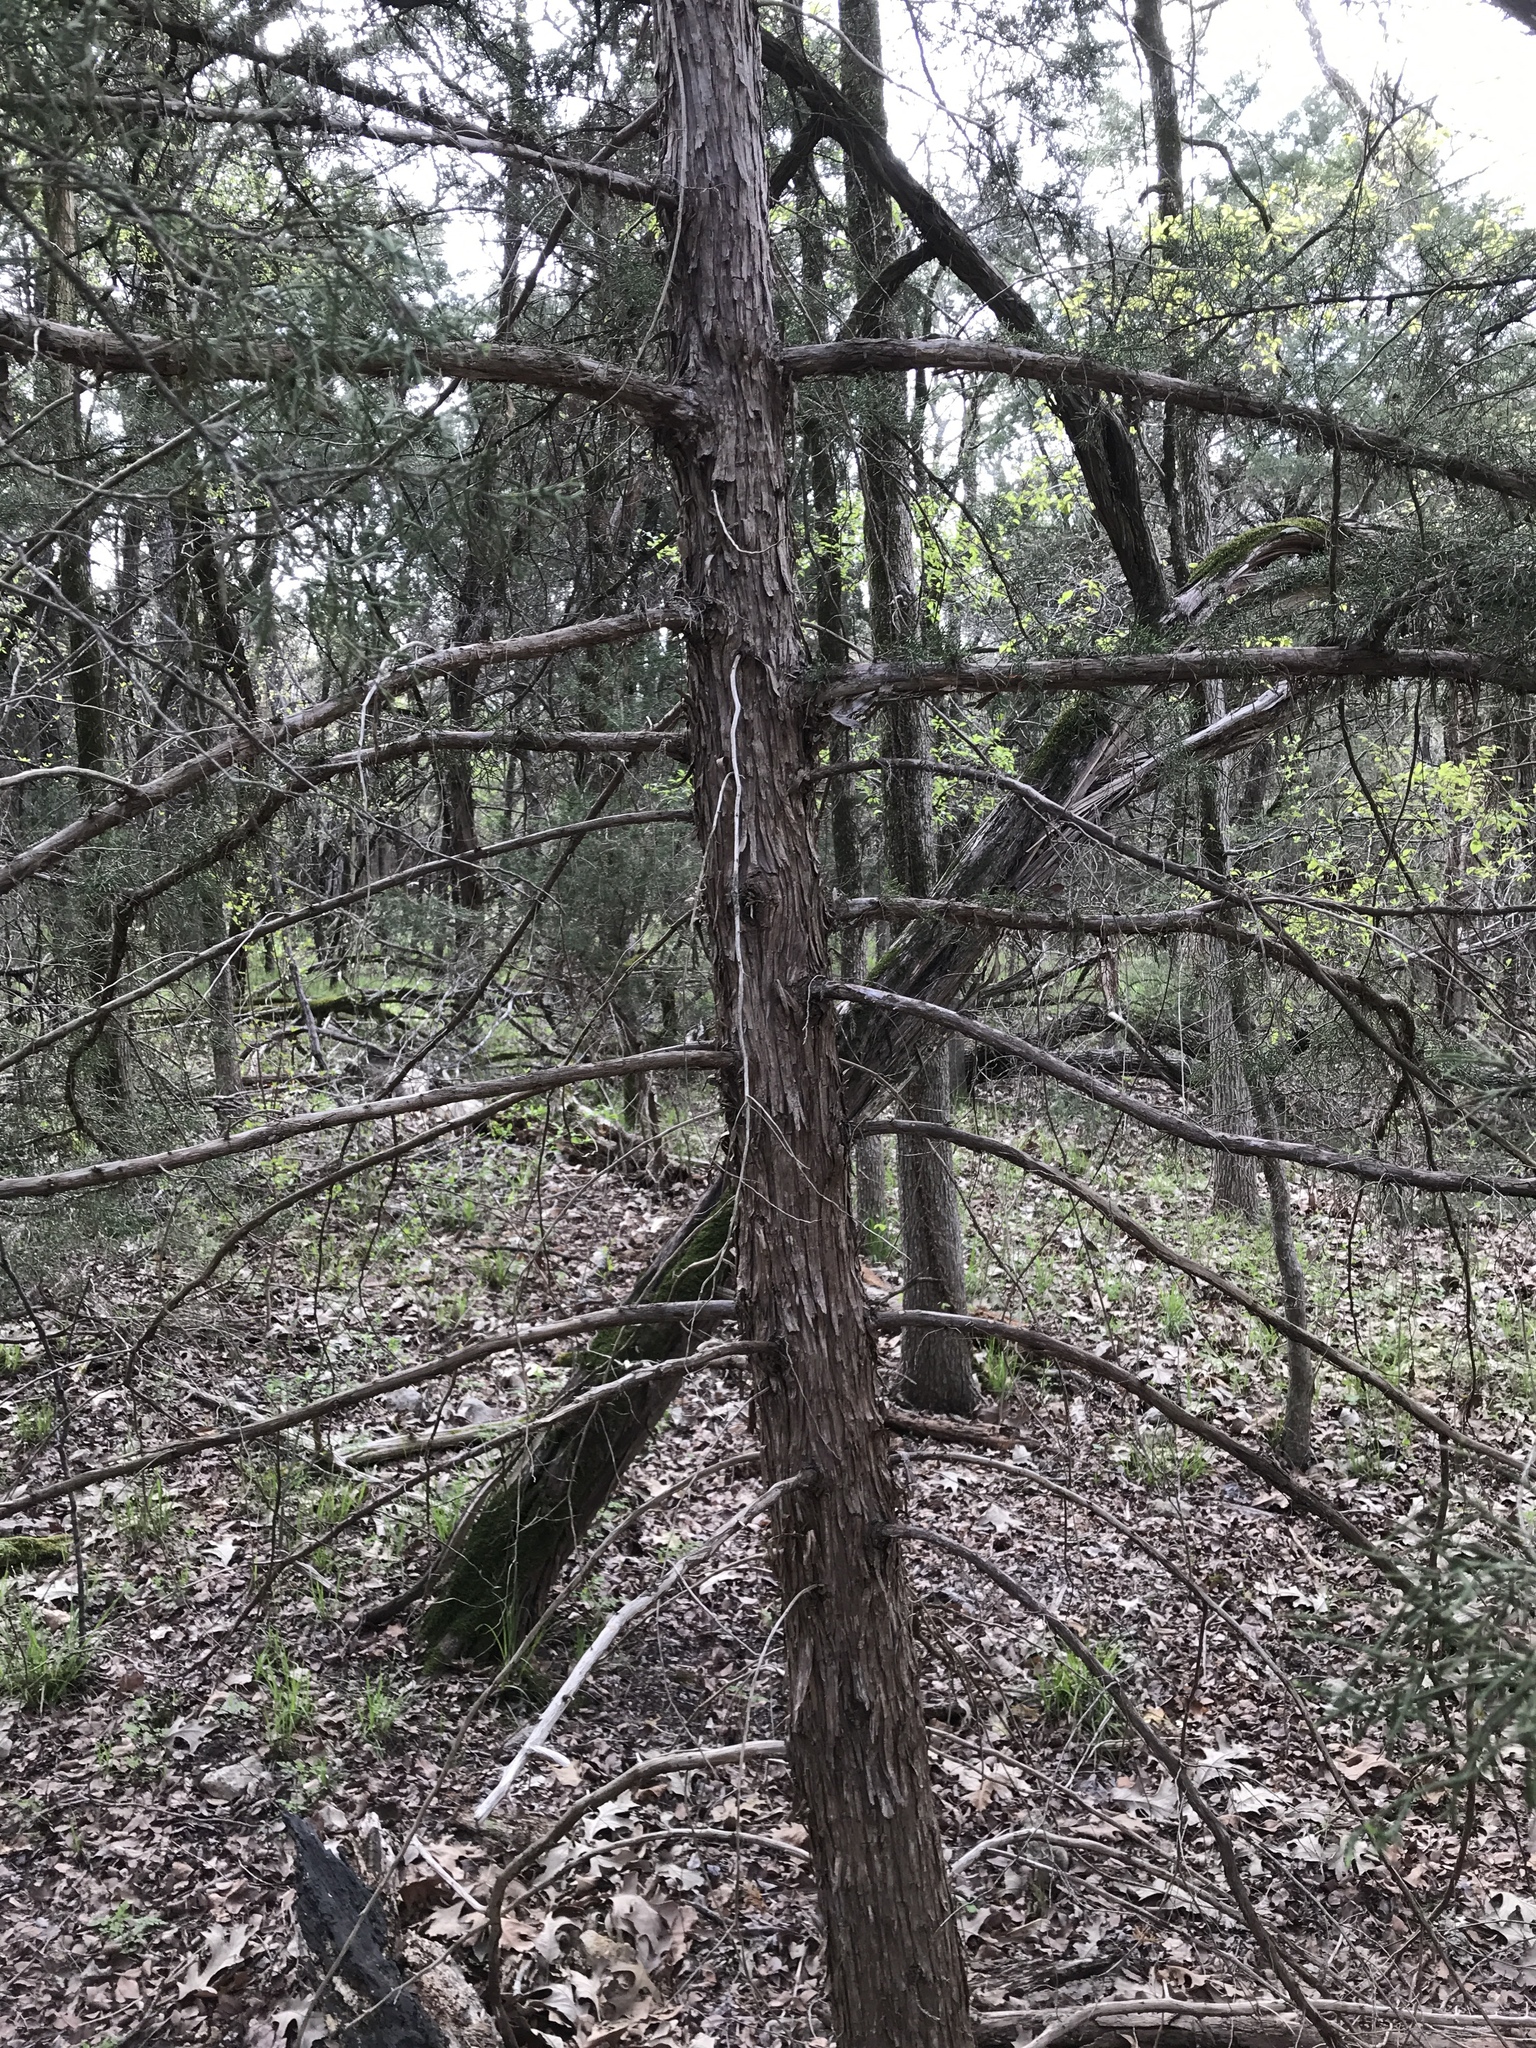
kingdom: Plantae
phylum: Tracheophyta
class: Pinopsida
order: Pinales
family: Cupressaceae
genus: Juniperus
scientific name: Juniperus virginiana
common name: Red juniper
